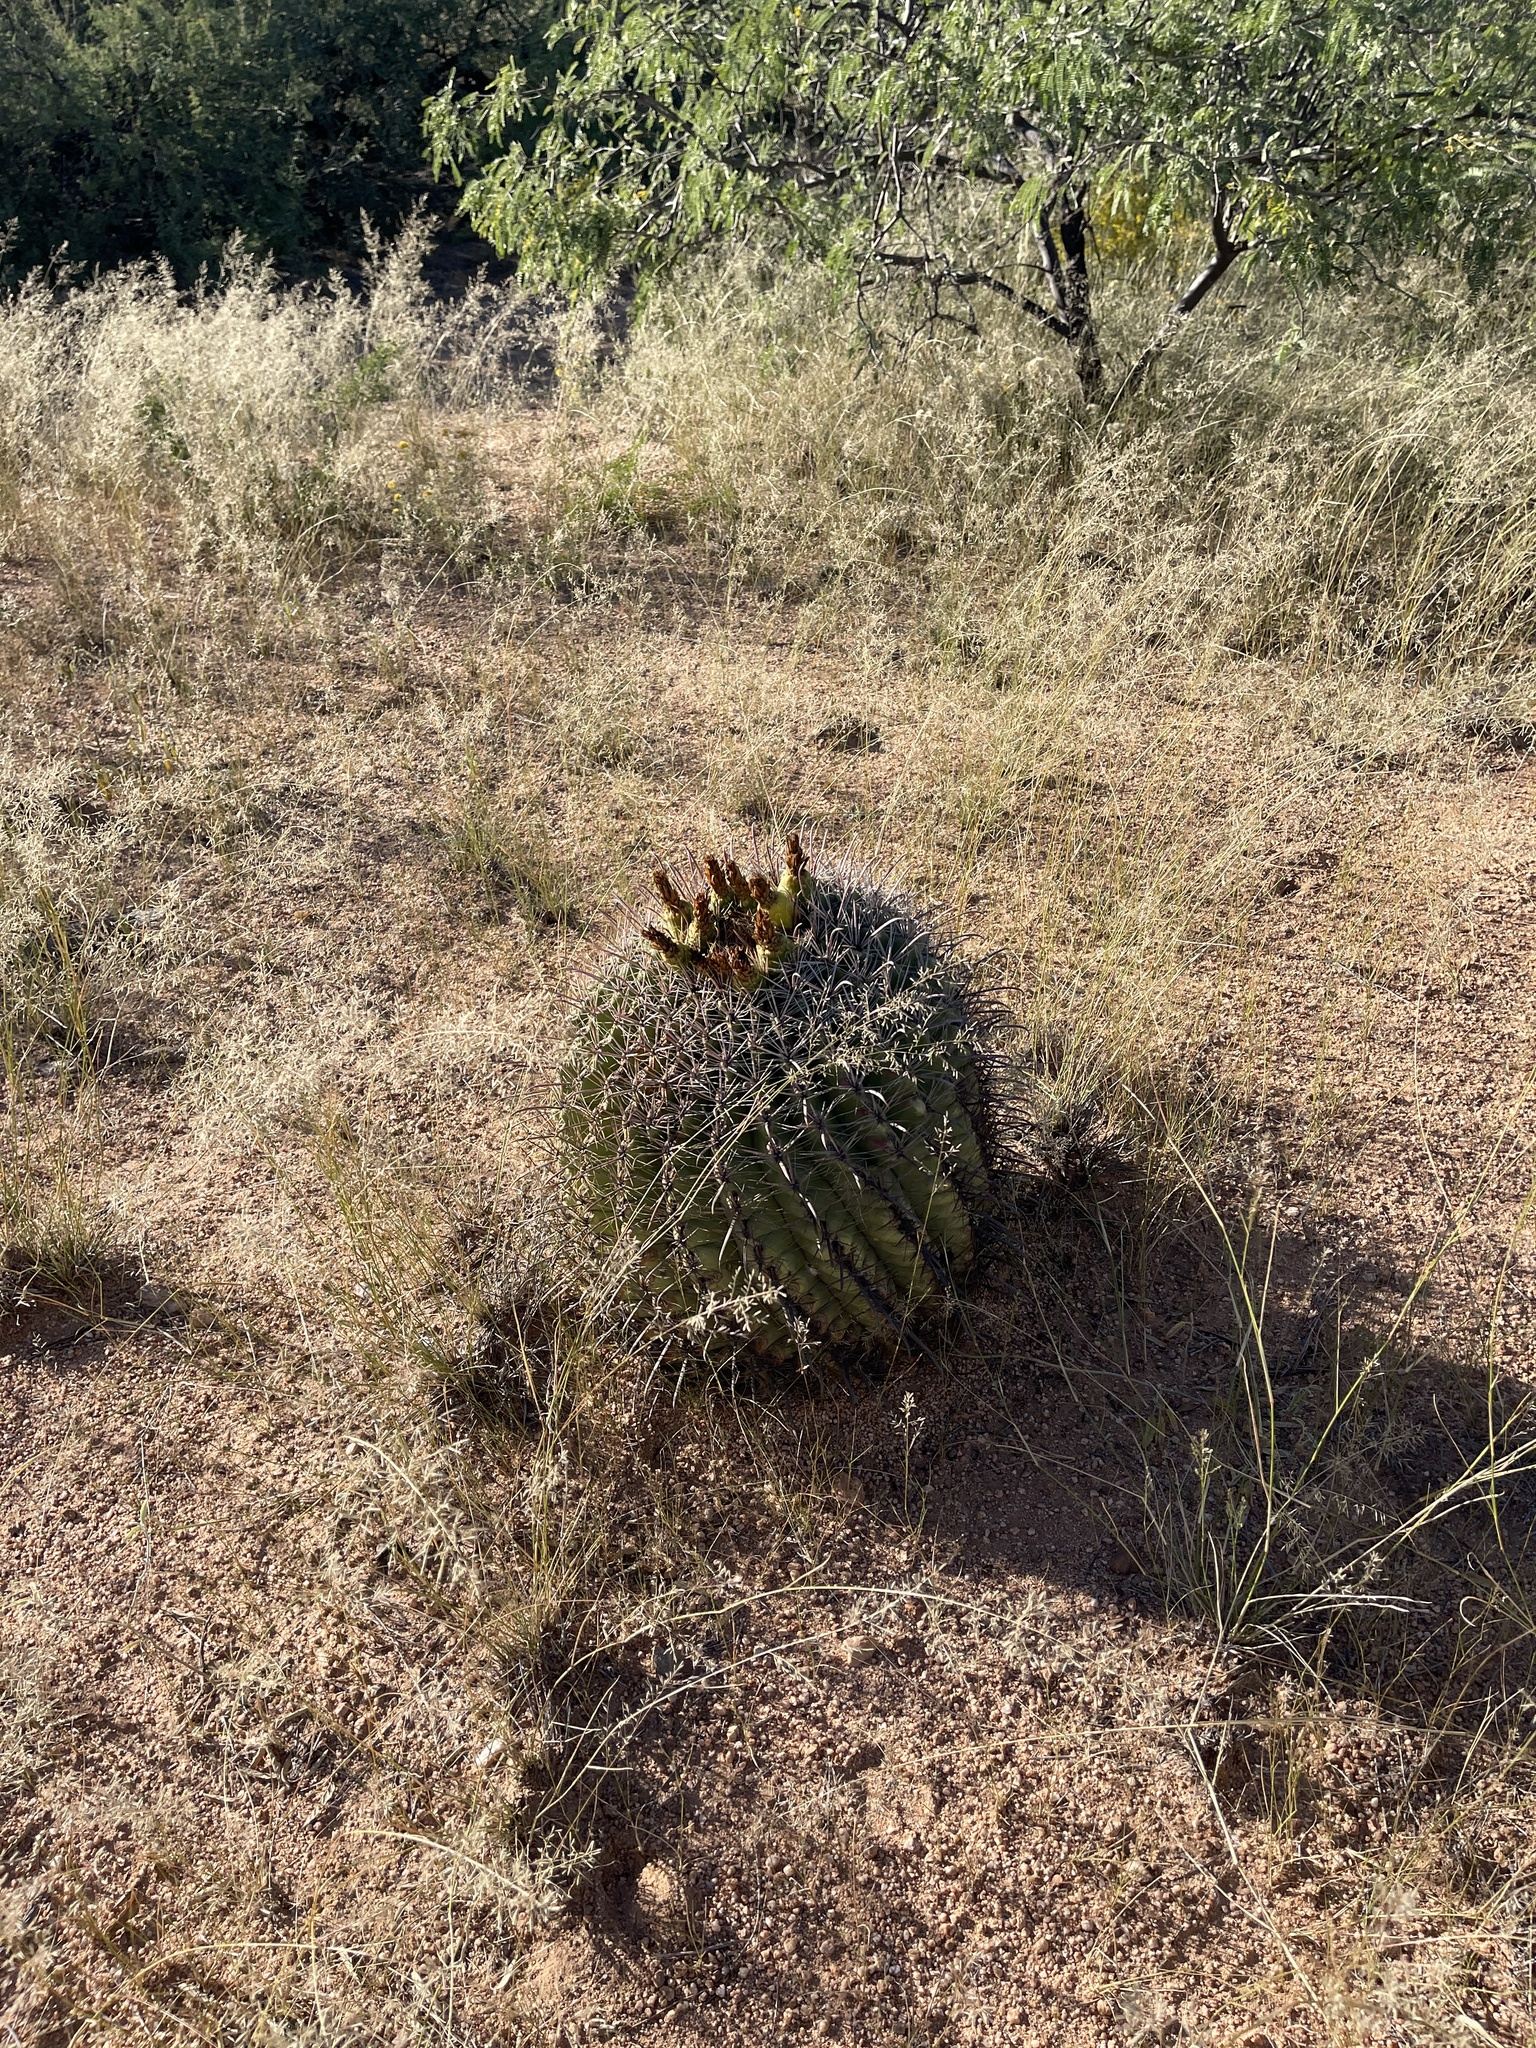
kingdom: Plantae
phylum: Tracheophyta
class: Magnoliopsida
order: Caryophyllales
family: Cactaceae
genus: Ferocactus
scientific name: Ferocactus wislizeni
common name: Candy barrel cactus
